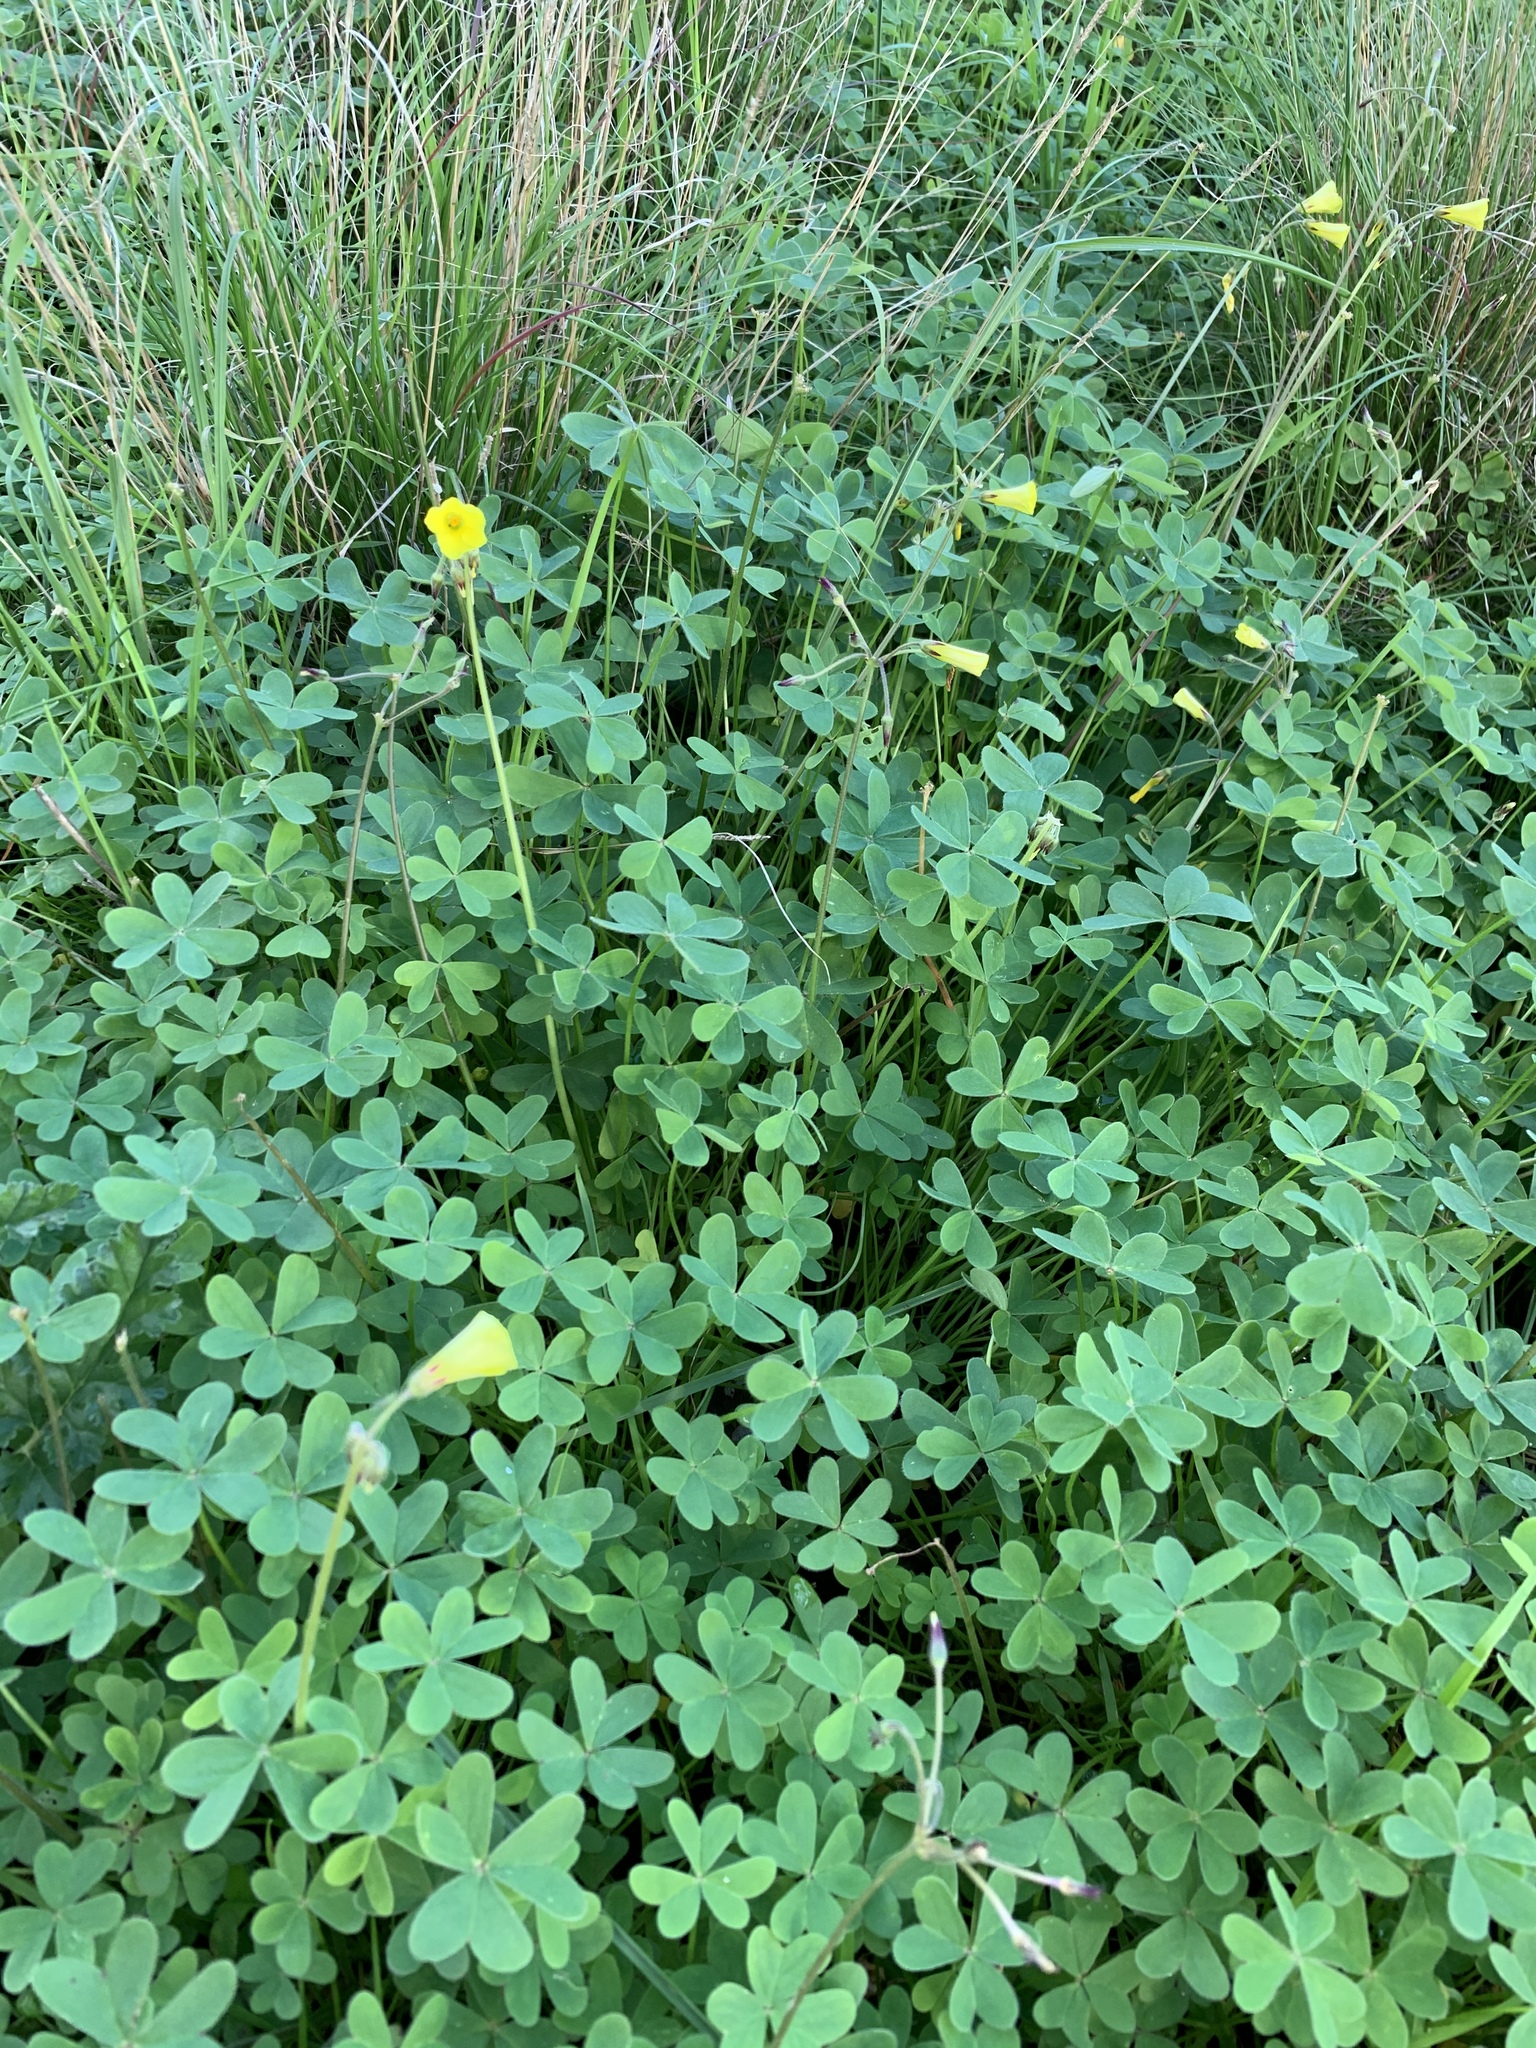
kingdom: Plantae
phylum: Tracheophyta
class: Magnoliopsida
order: Oxalidales
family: Oxalidaceae
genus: Oxalis
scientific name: Oxalis pes-caprae
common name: Bermuda-buttercup
